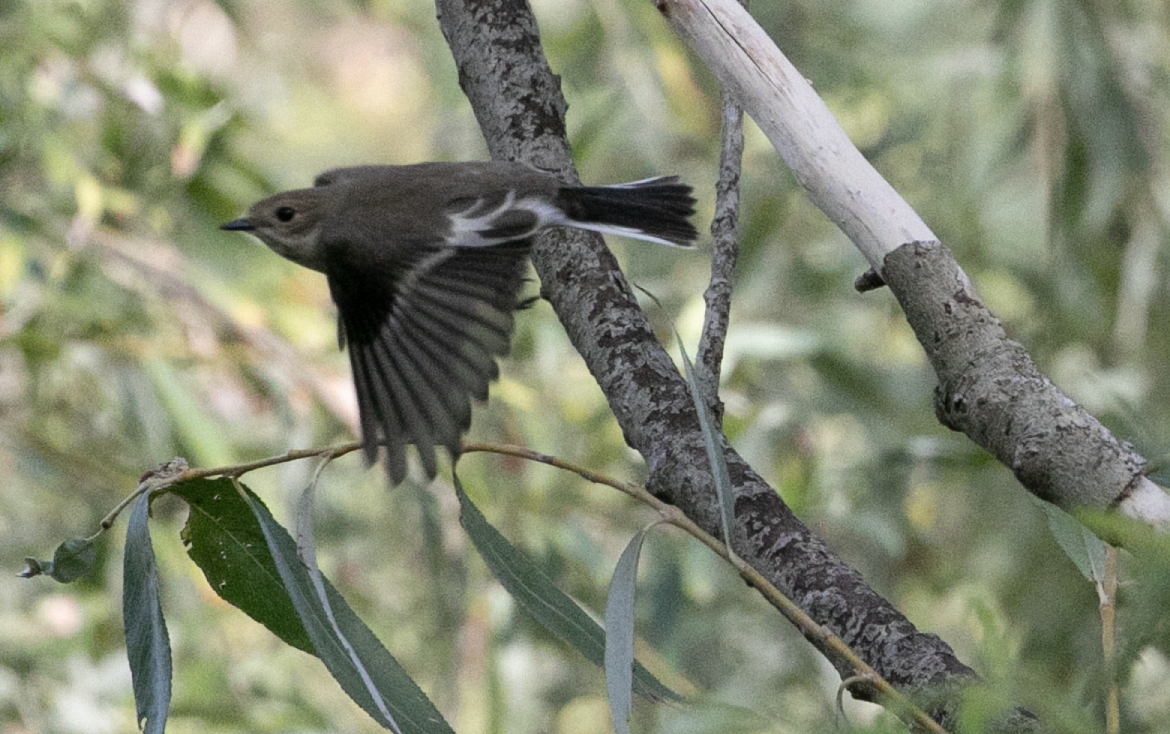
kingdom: Animalia
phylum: Chordata
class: Aves
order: Passeriformes
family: Muscicapidae
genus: Ficedula
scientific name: Ficedula hypoleuca
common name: European pied flycatcher
